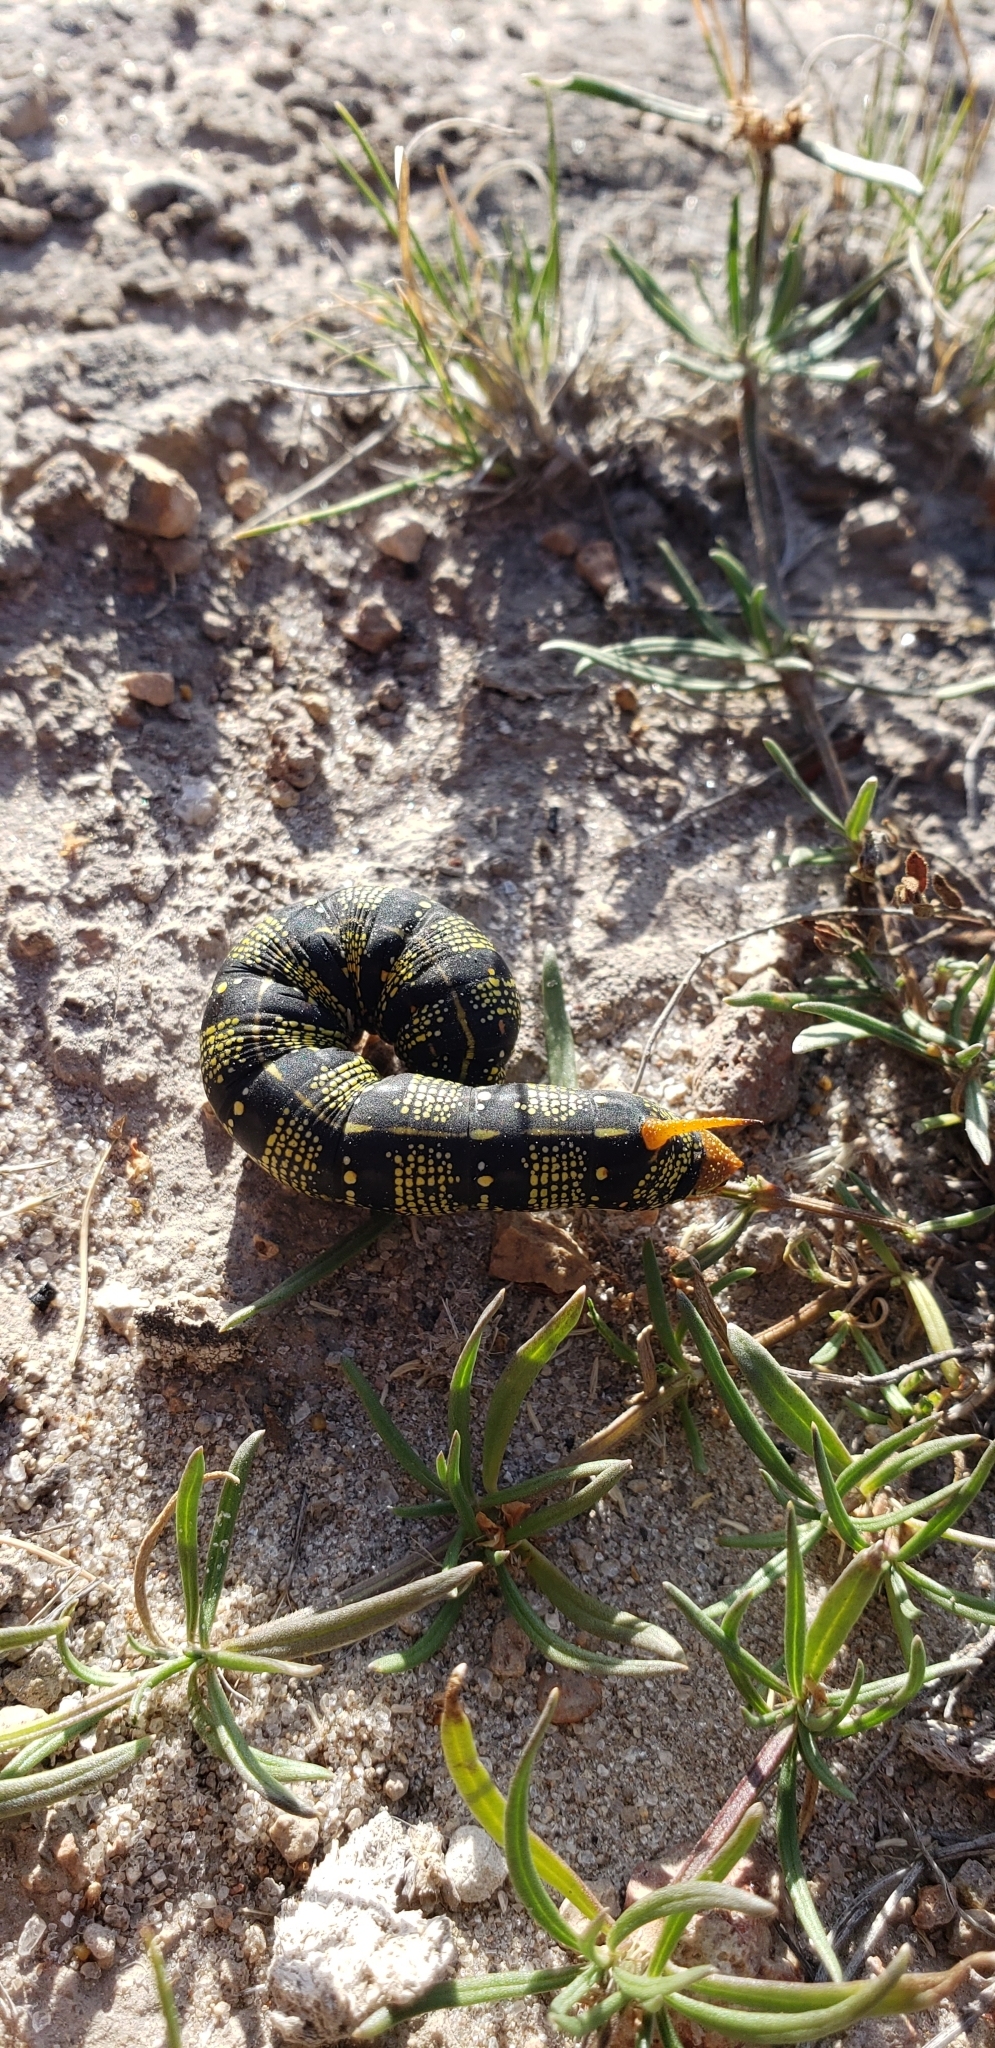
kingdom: Animalia
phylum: Arthropoda
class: Insecta
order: Lepidoptera
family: Sphingidae
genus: Hyles
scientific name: Hyles lineata
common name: White-lined sphinx
